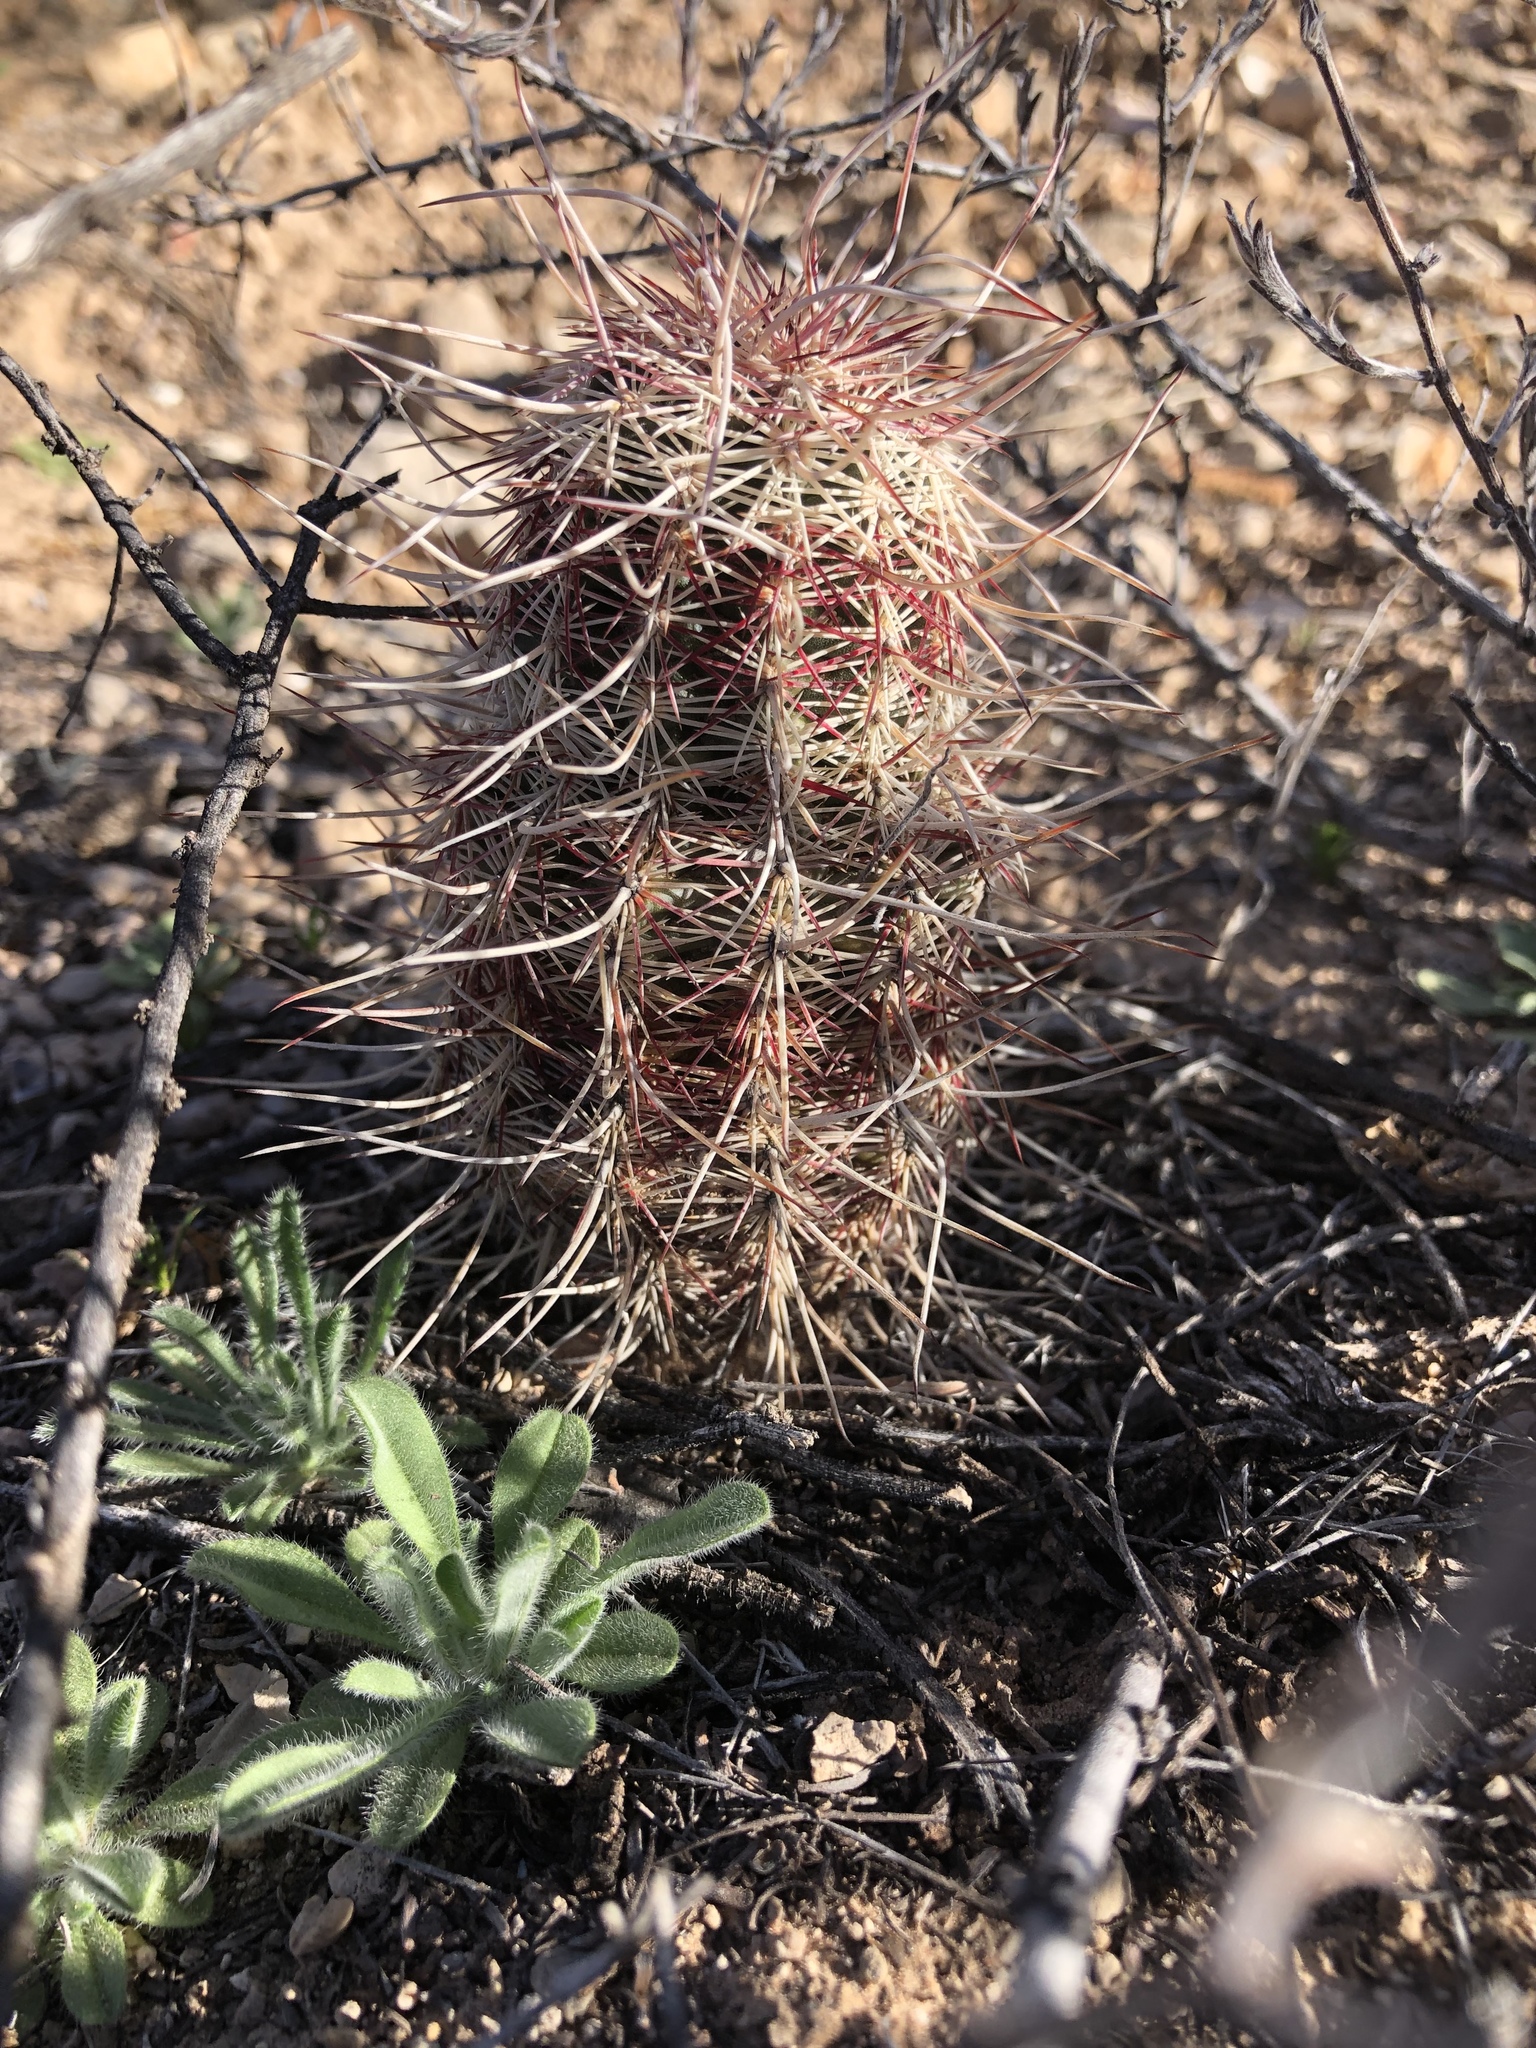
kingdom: Plantae
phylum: Tracheophyta
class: Magnoliopsida
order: Caryophyllales
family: Cactaceae
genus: Echinocereus
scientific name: Echinocereus viridiflorus
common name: Nylon hedgehog cactus
